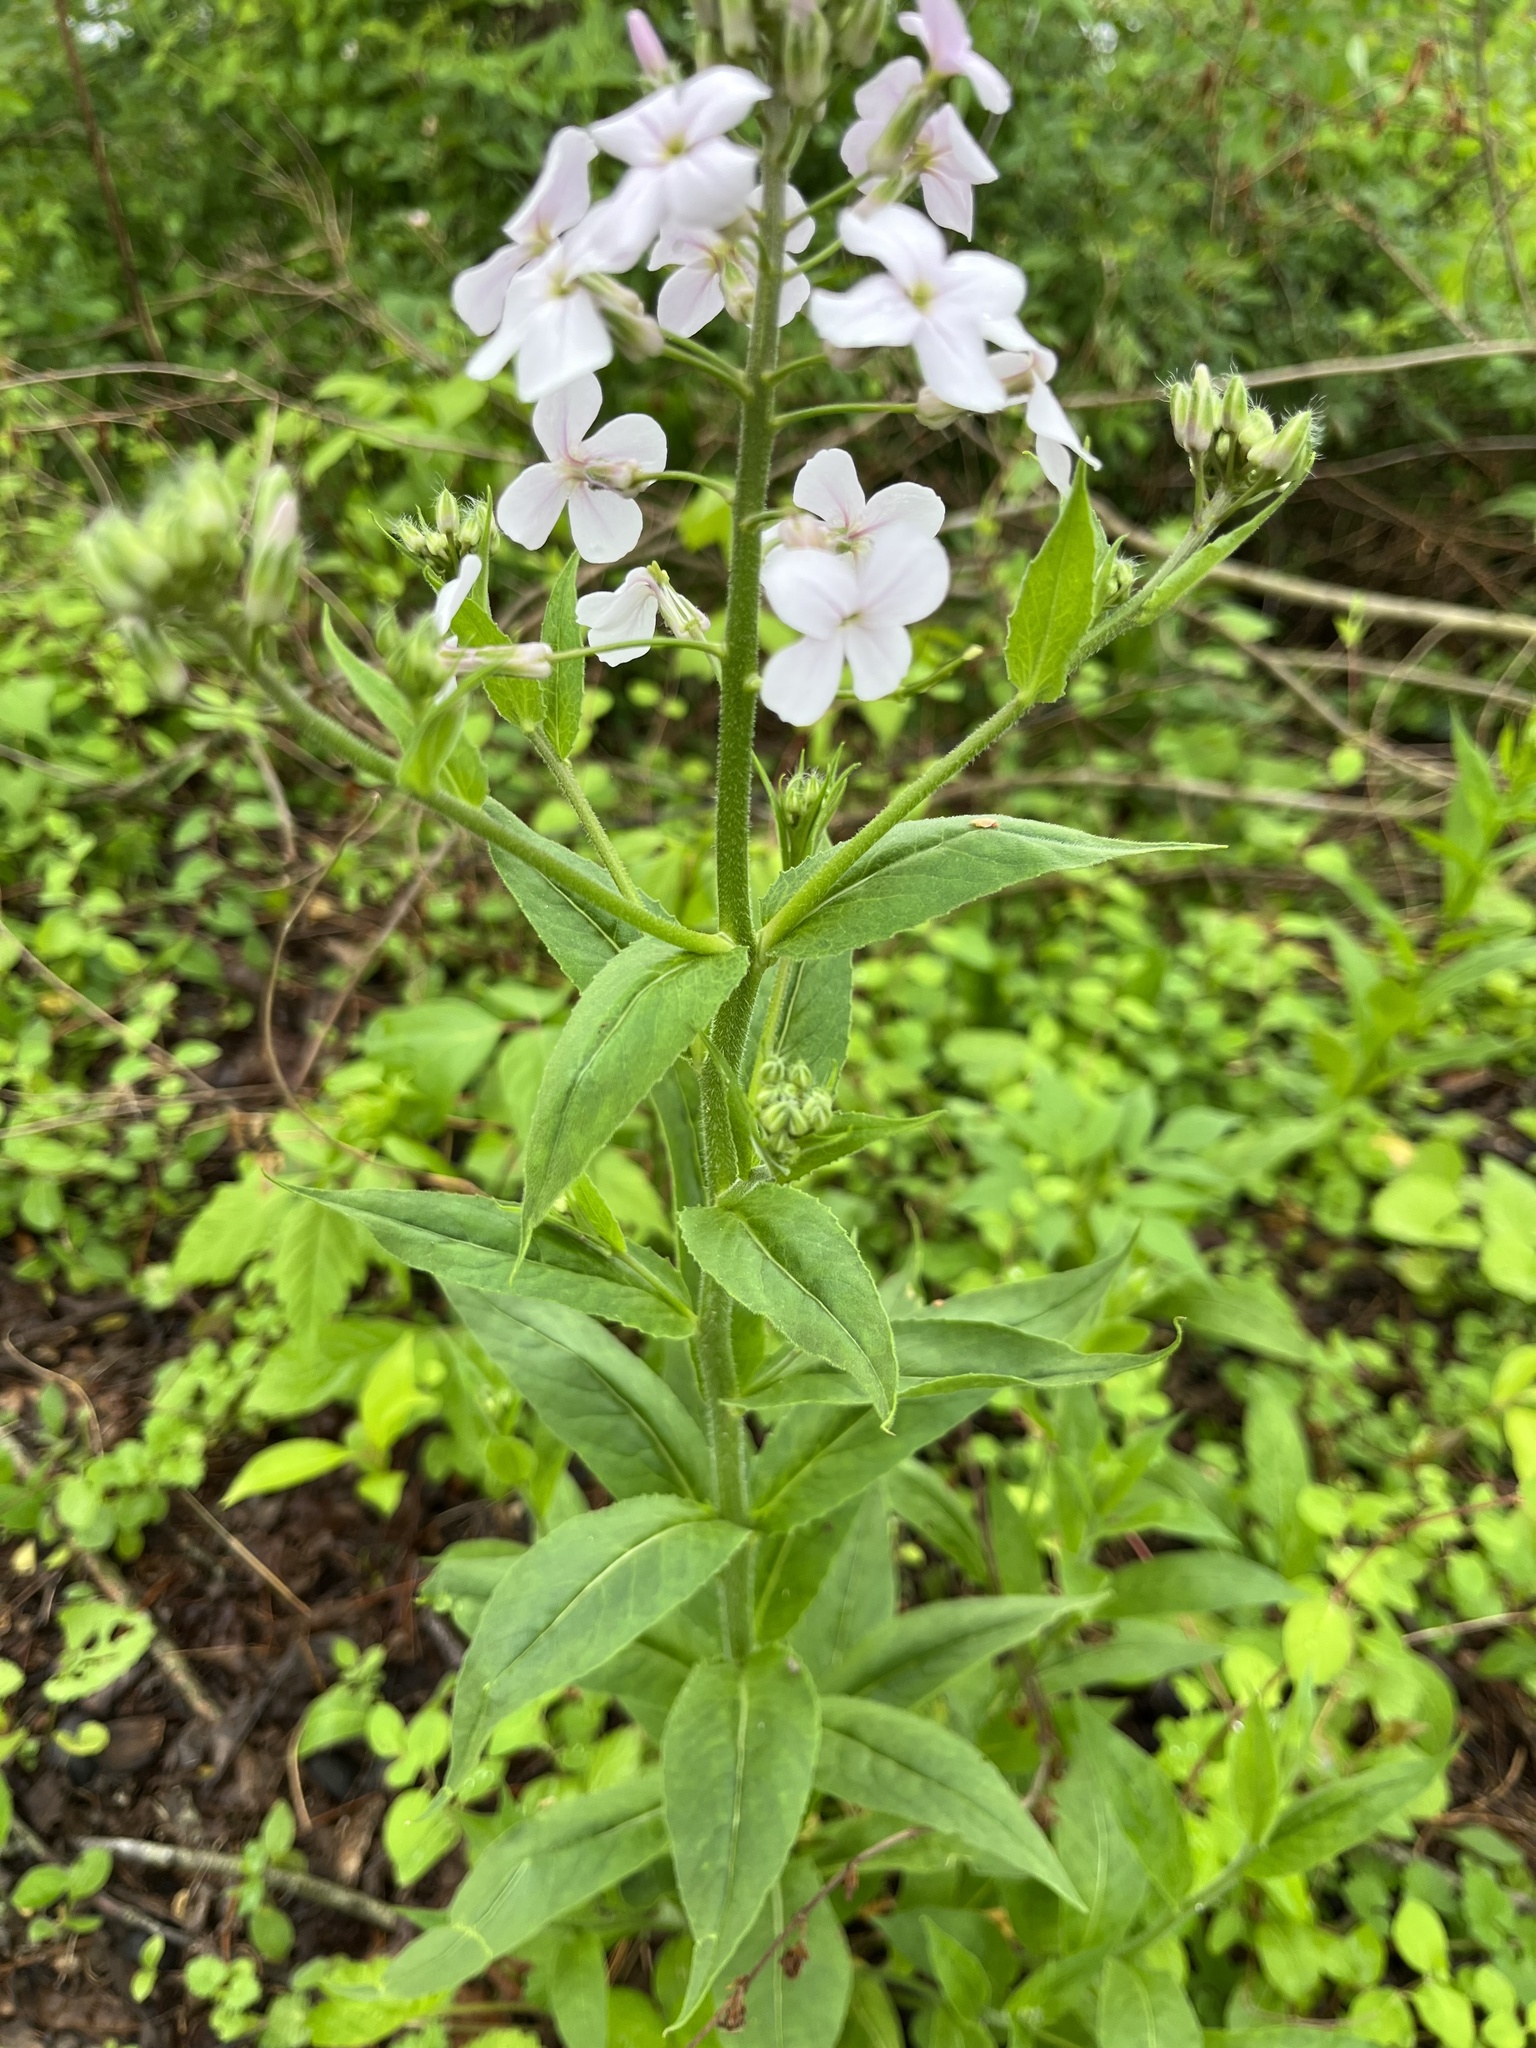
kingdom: Plantae
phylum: Tracheophyta
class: Magnoliopsida
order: Brassicales
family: Brassicaceae
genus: Hesperis
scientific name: Hesperis matronalis
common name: Dame's-violet
